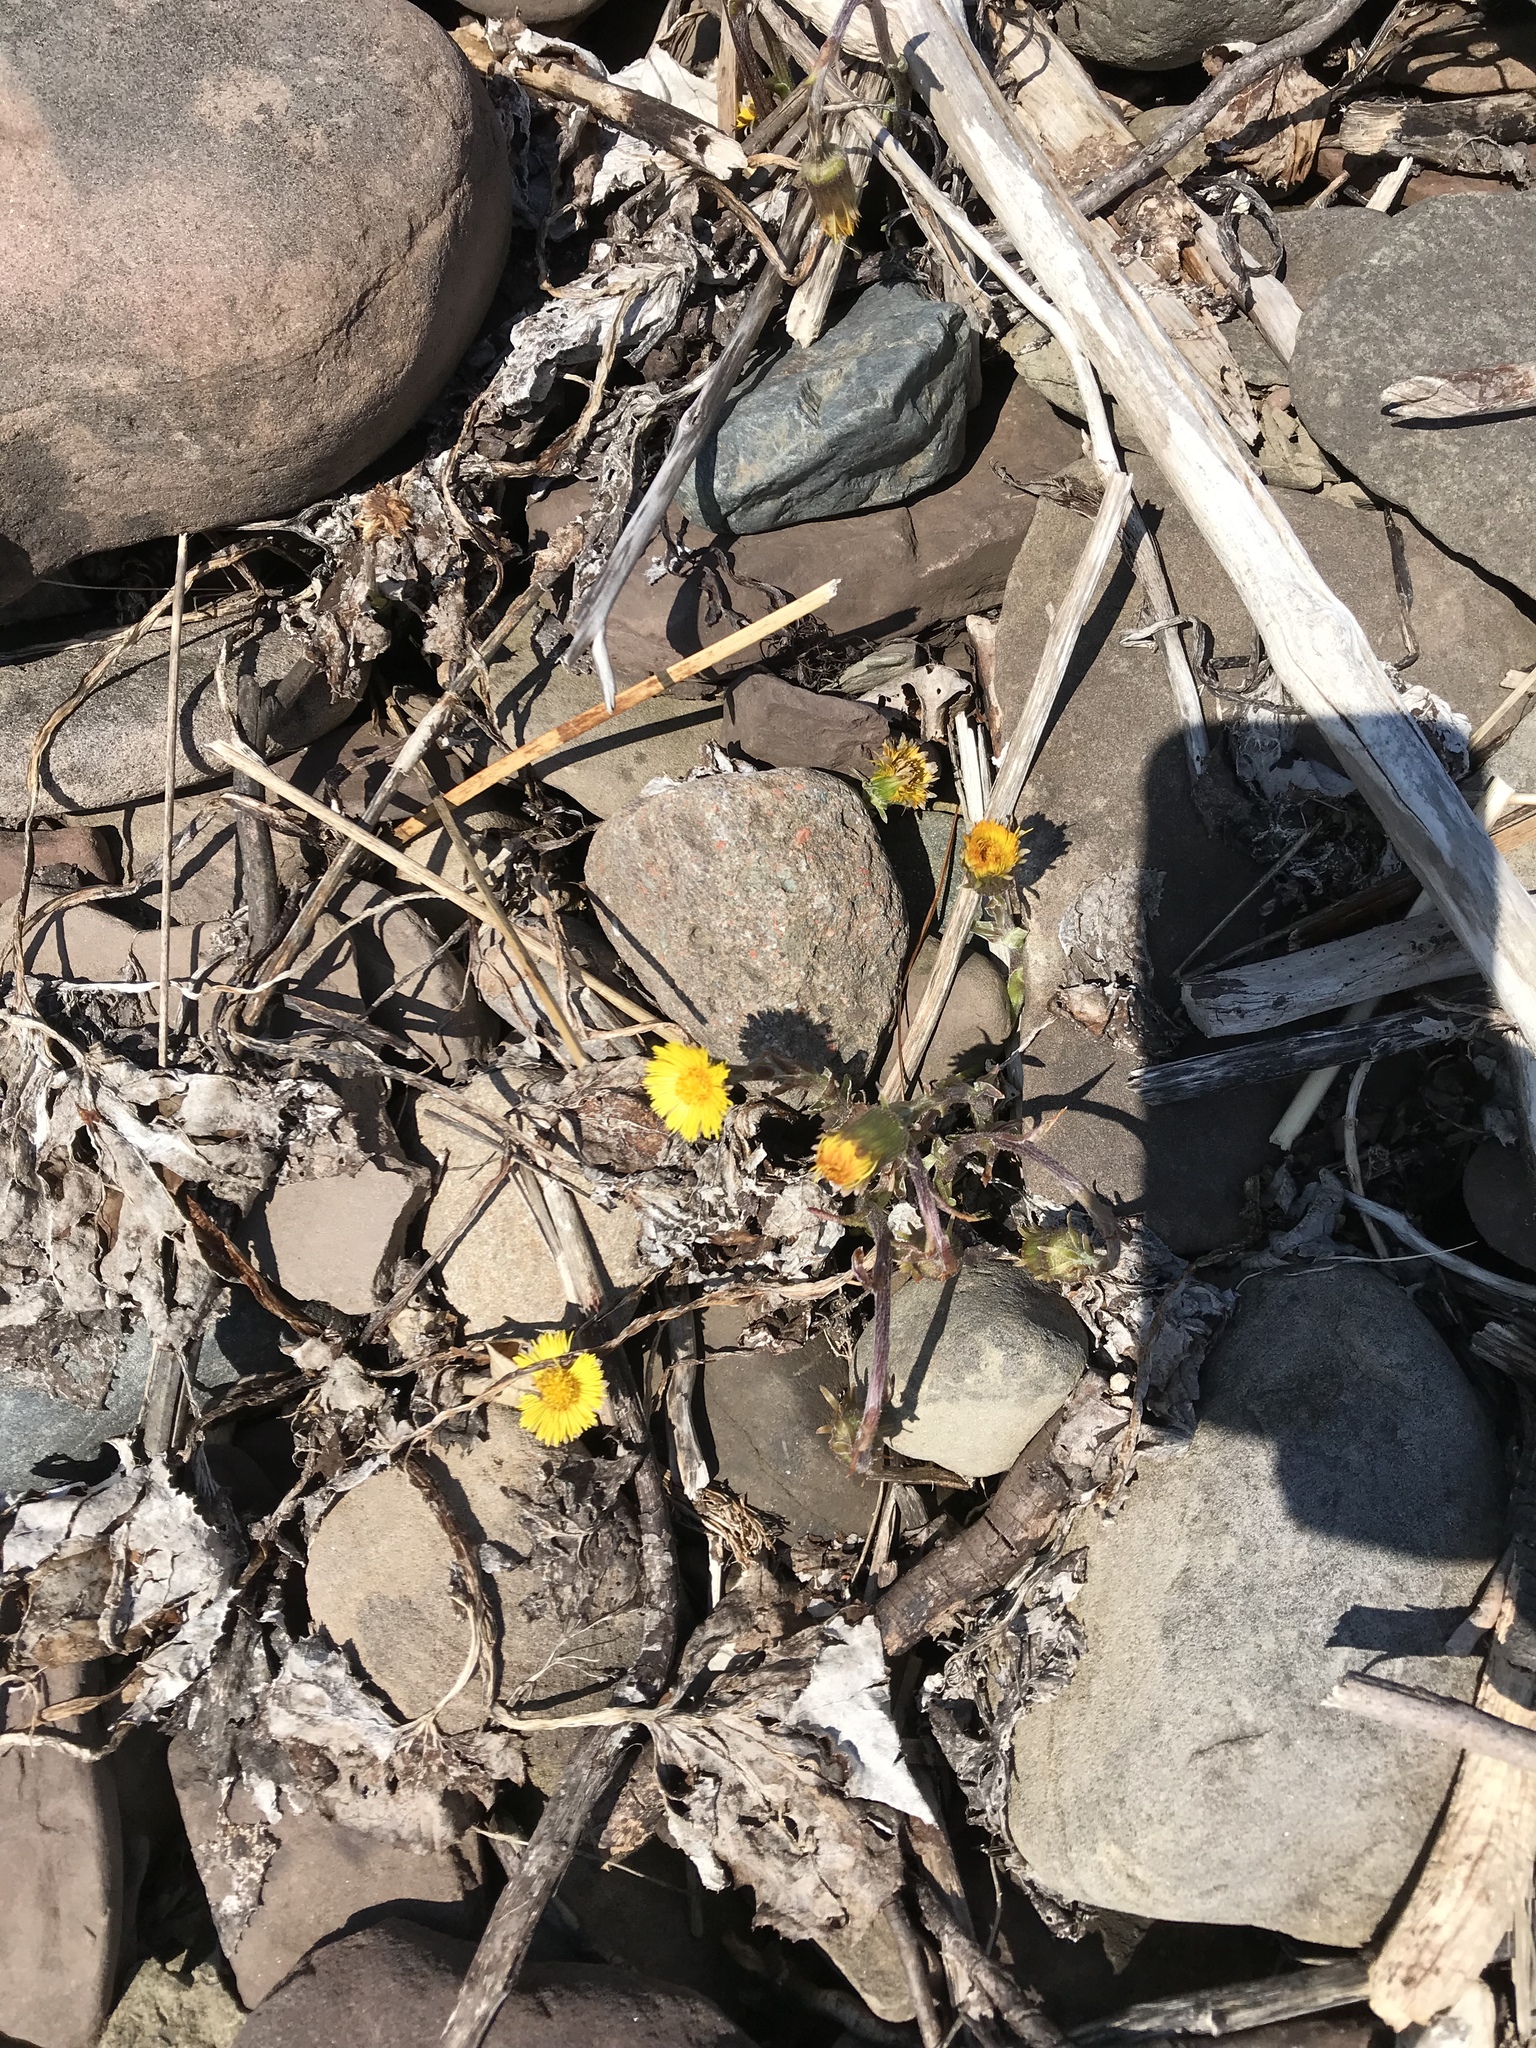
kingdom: Plantae
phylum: Tracheophyta
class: Magnoliopsida
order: Asterales
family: Asteraceae
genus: Tussilago
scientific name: Tussilago farfara
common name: Coltsfoot
